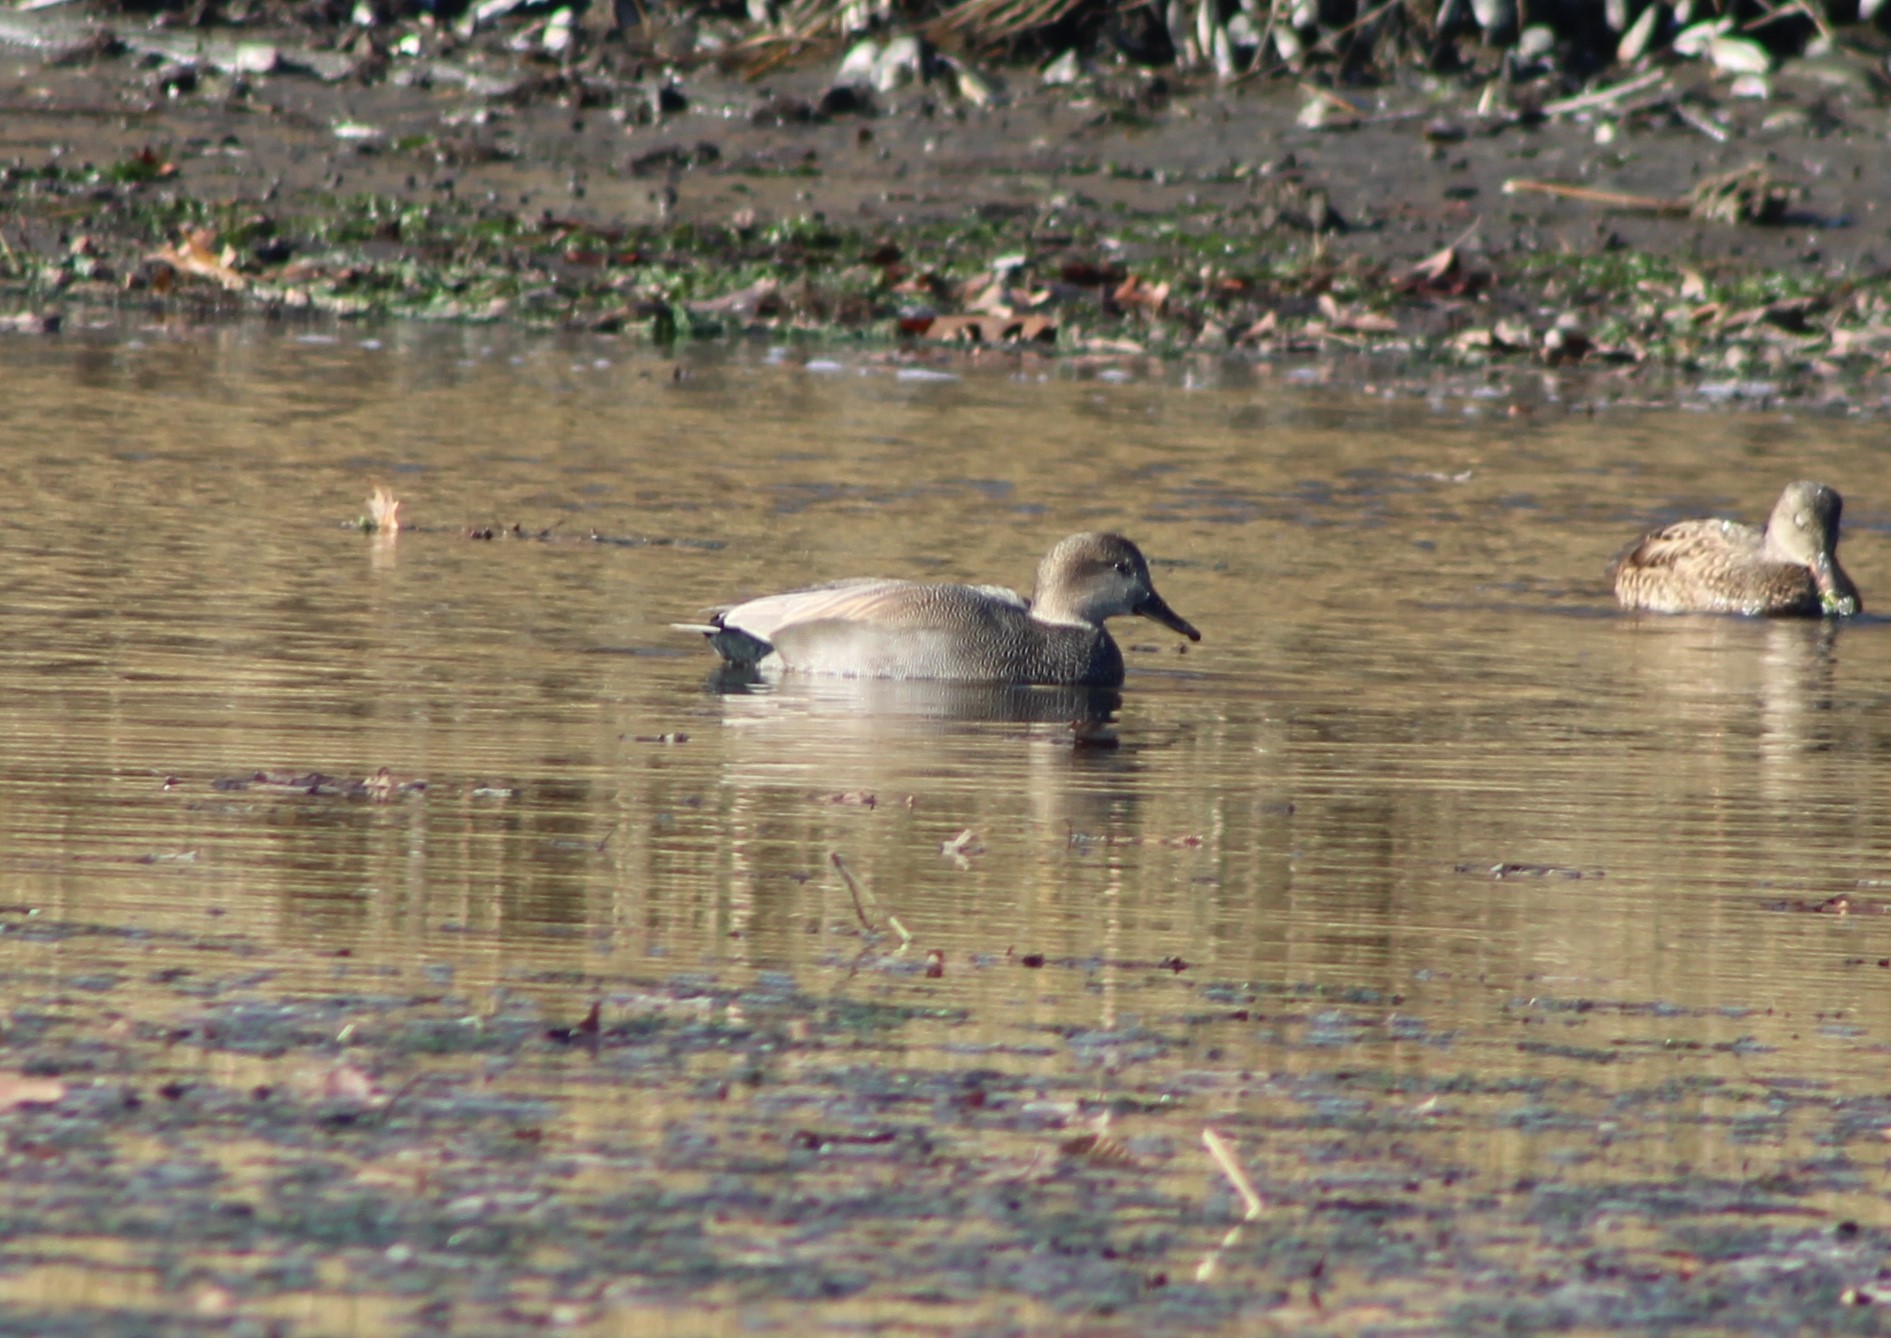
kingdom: Animalia
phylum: Chordata
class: Aves
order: Anseriformes
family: Anatidae
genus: Mareca
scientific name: Mareca strepera
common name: Gadwall
